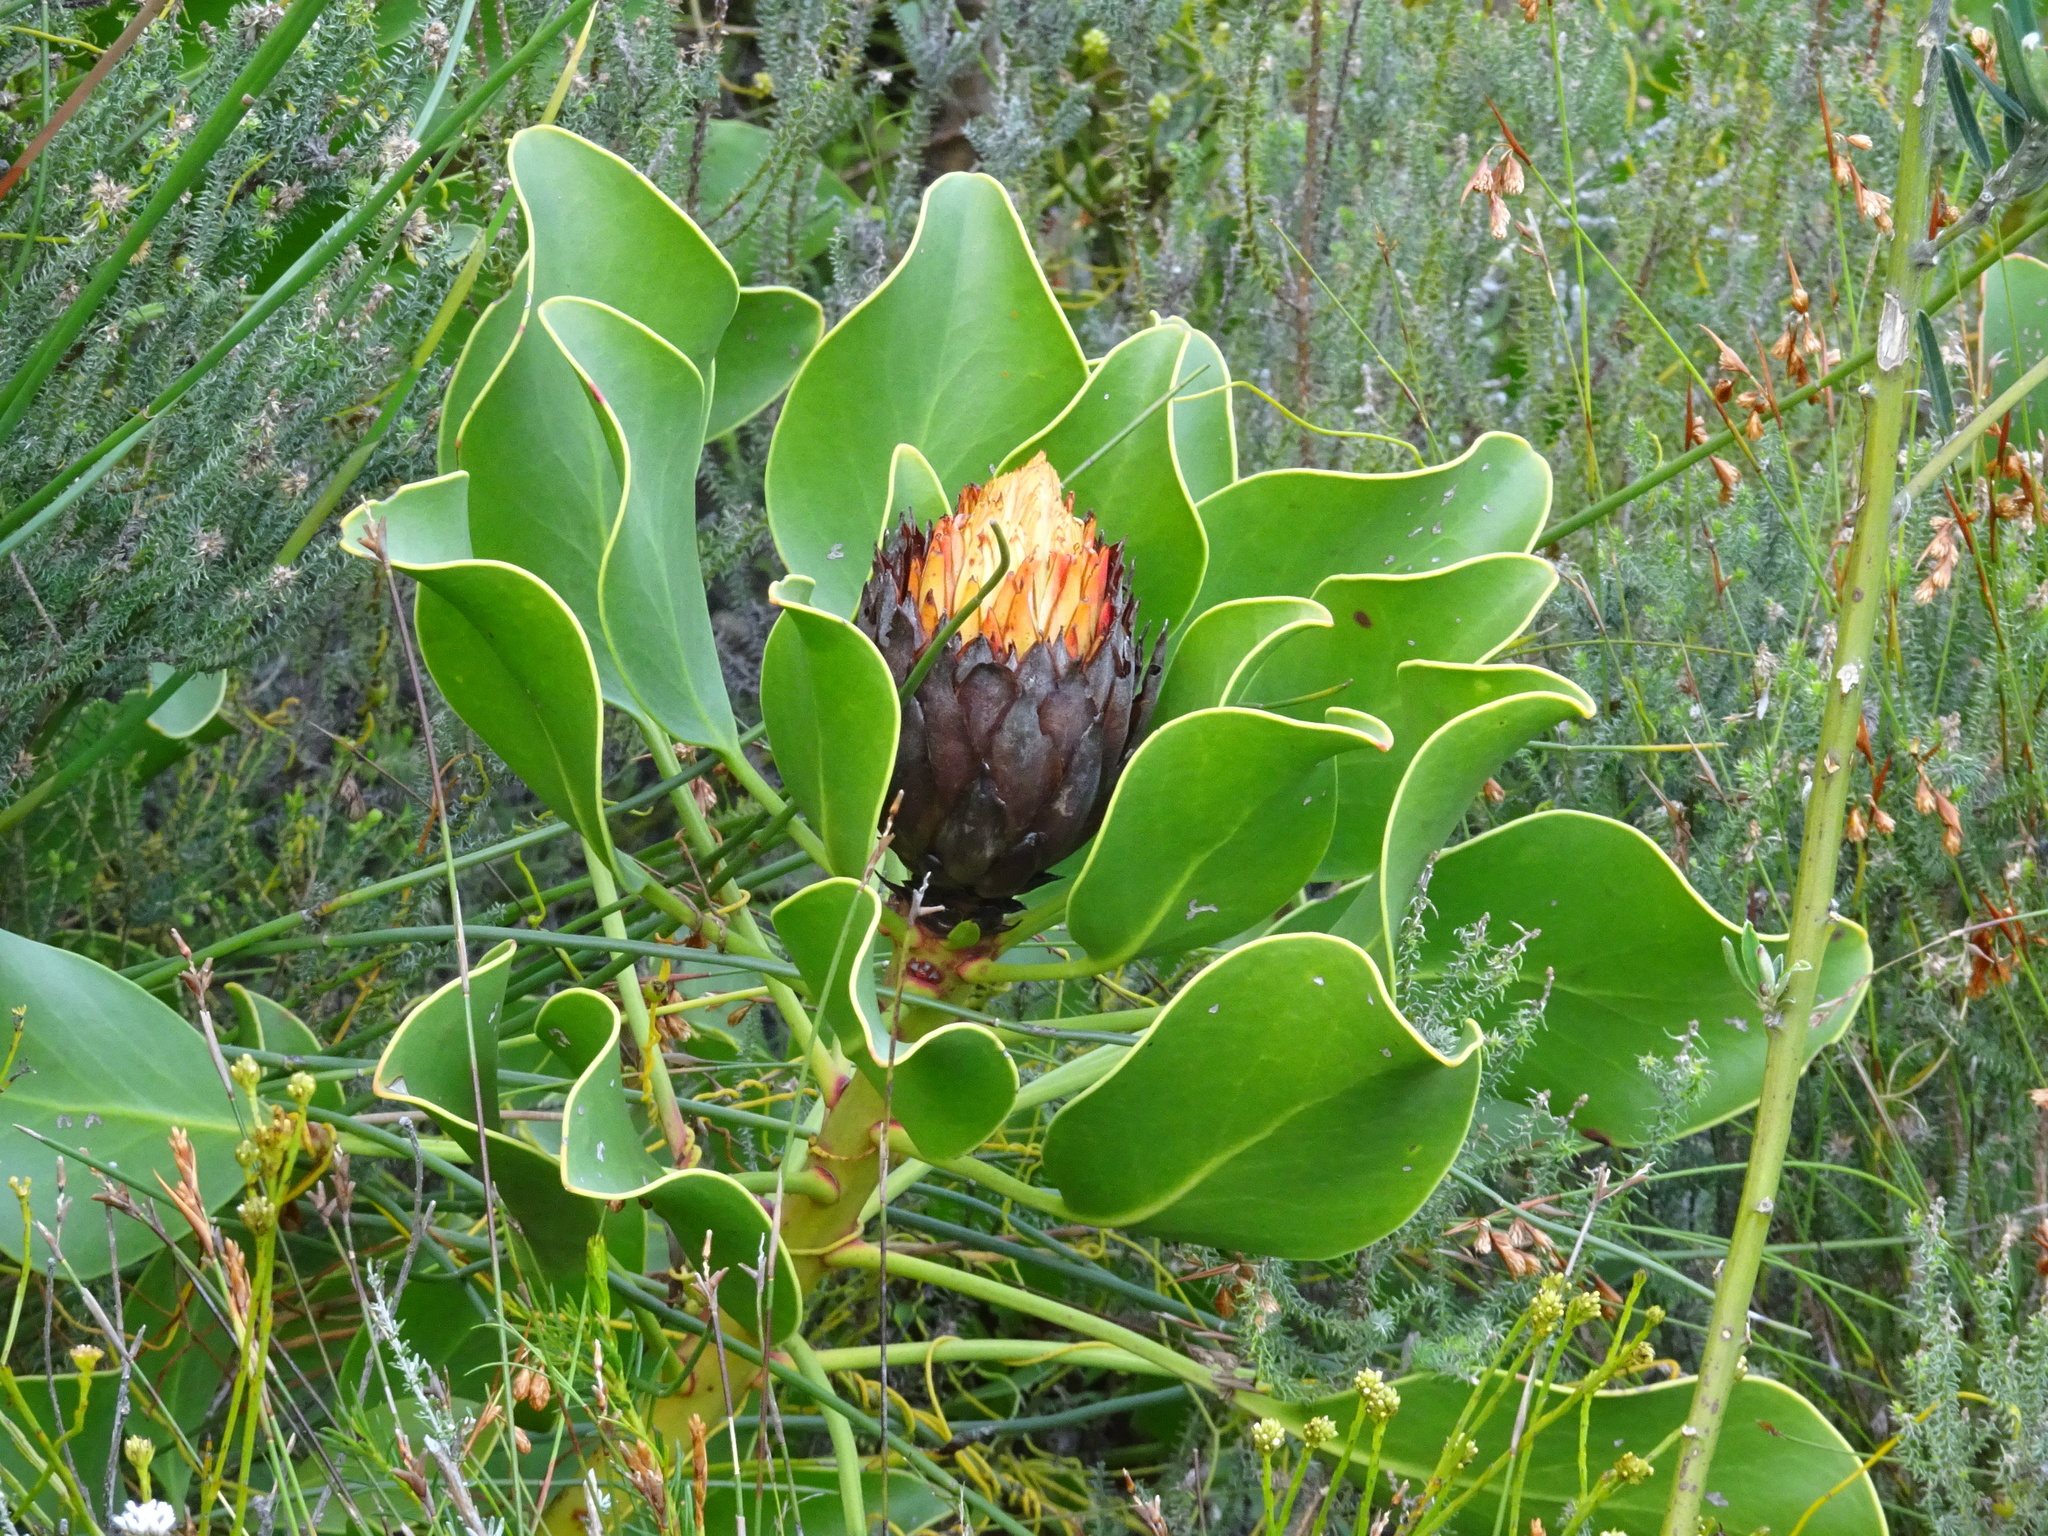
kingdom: Plantae
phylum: Tracheophyta
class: Magnoliopsida
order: Proteales
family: Proteaceae
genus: Protea
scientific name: Protea cynaroides
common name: King protea
